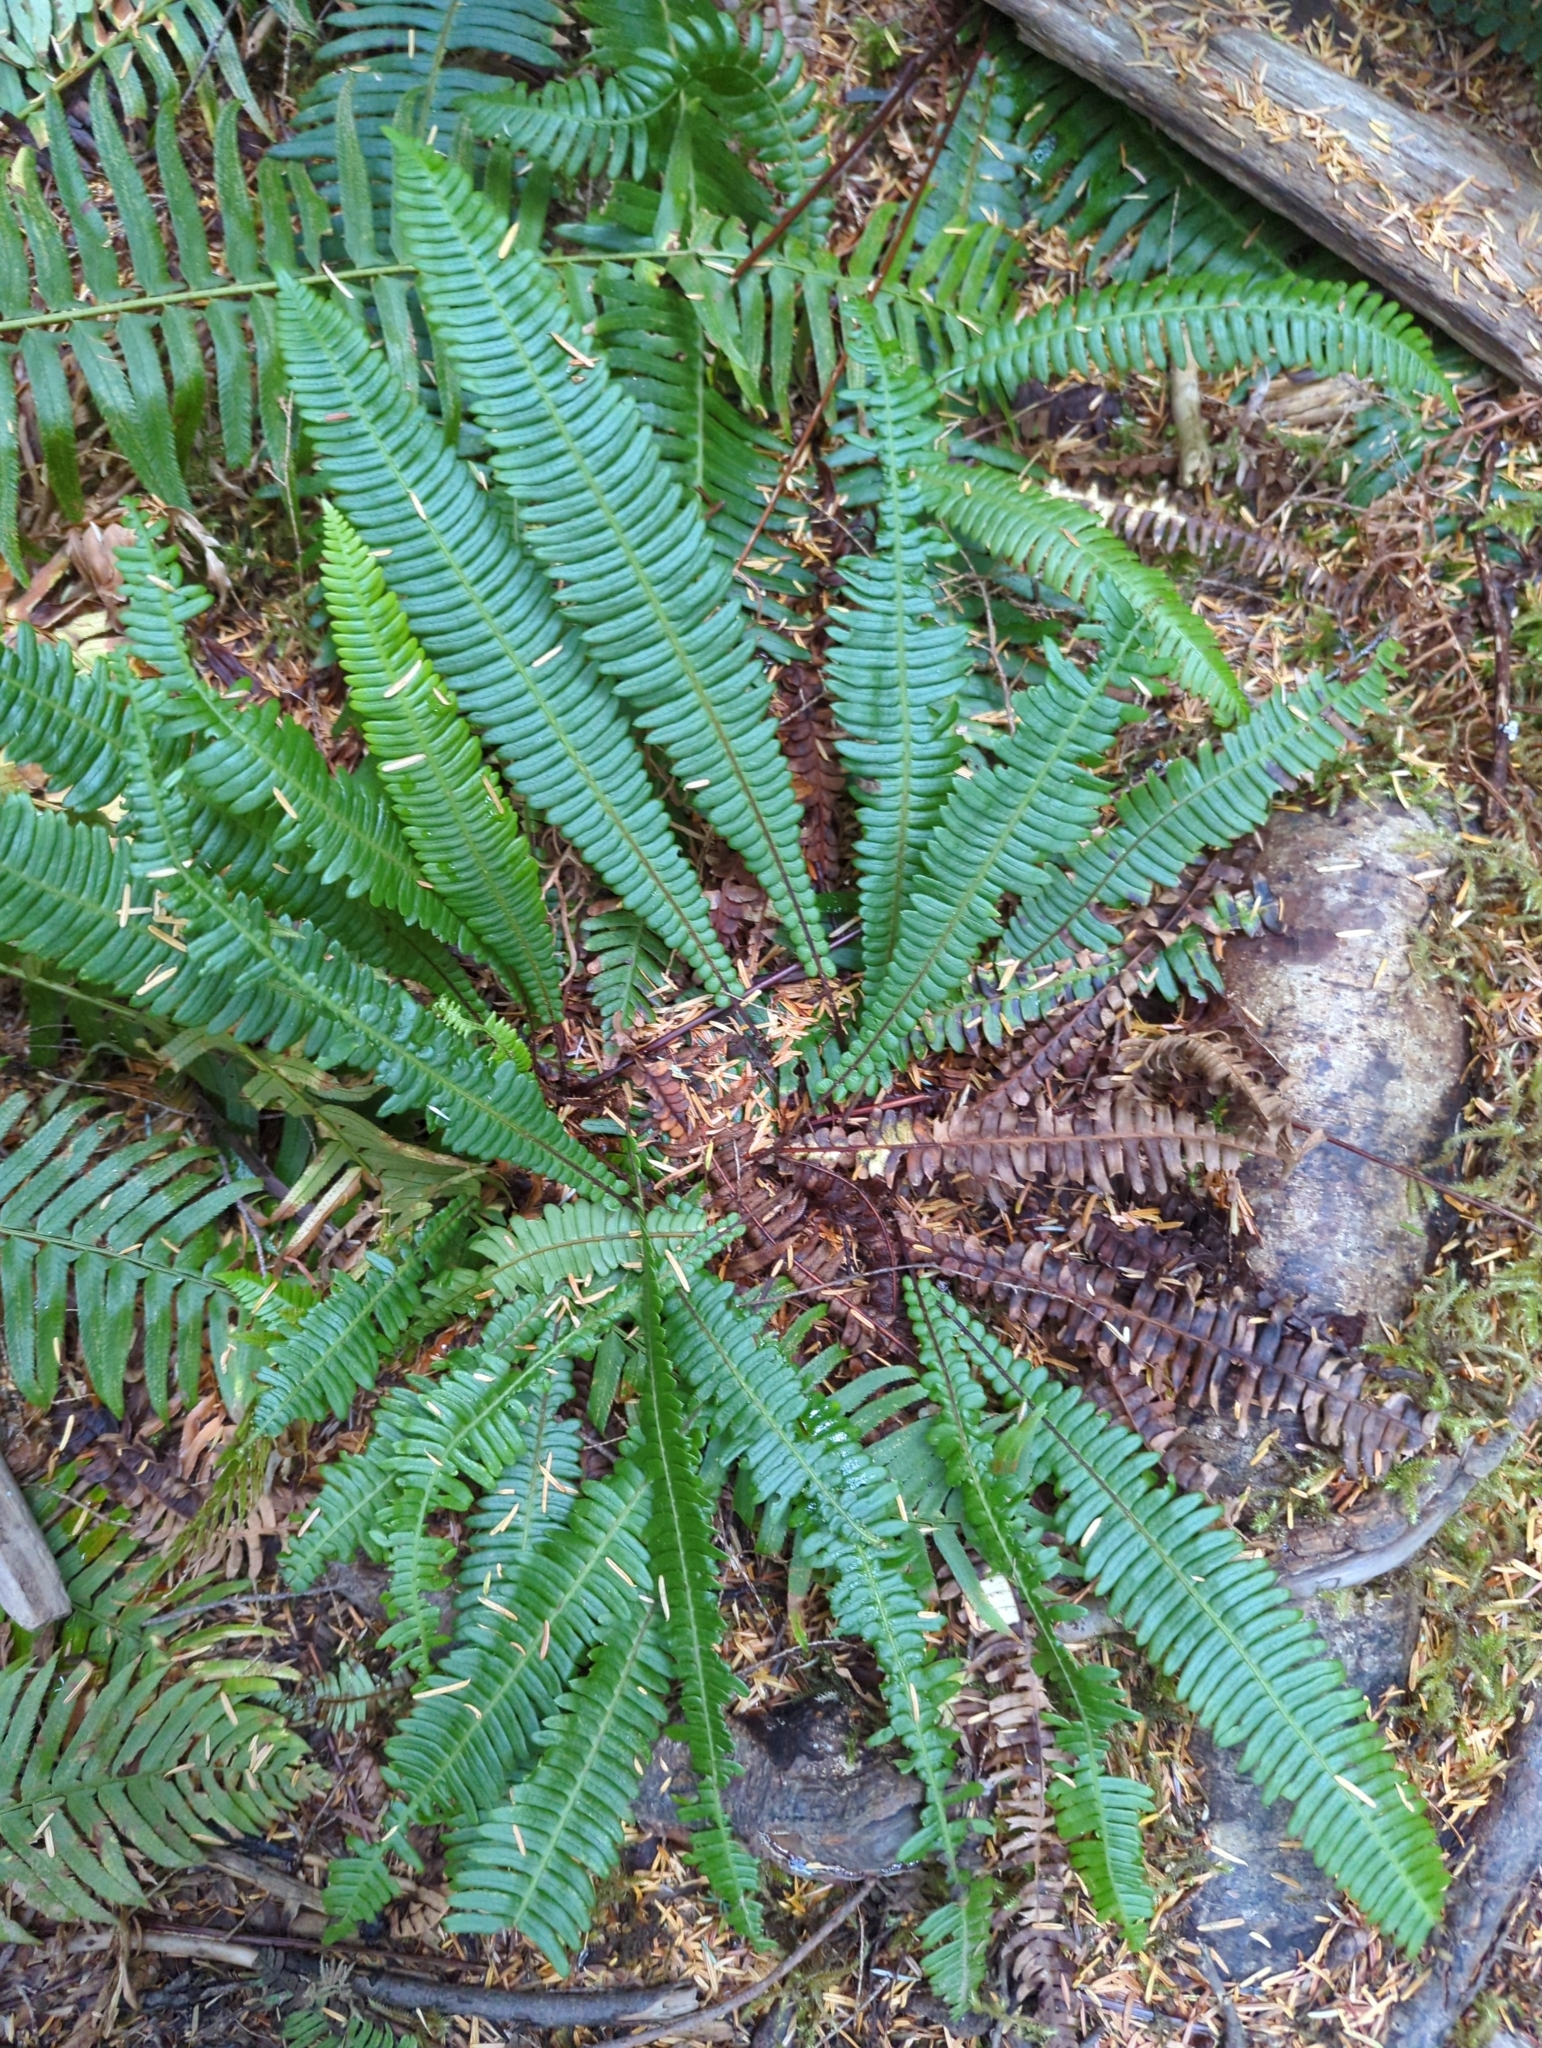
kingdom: Plantae
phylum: Tracheophyta
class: Polypodiopsida
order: Polypodiales
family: Blechnaceae
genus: Struthiopteris
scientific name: Struthiopteris spicant
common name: Deer fern
